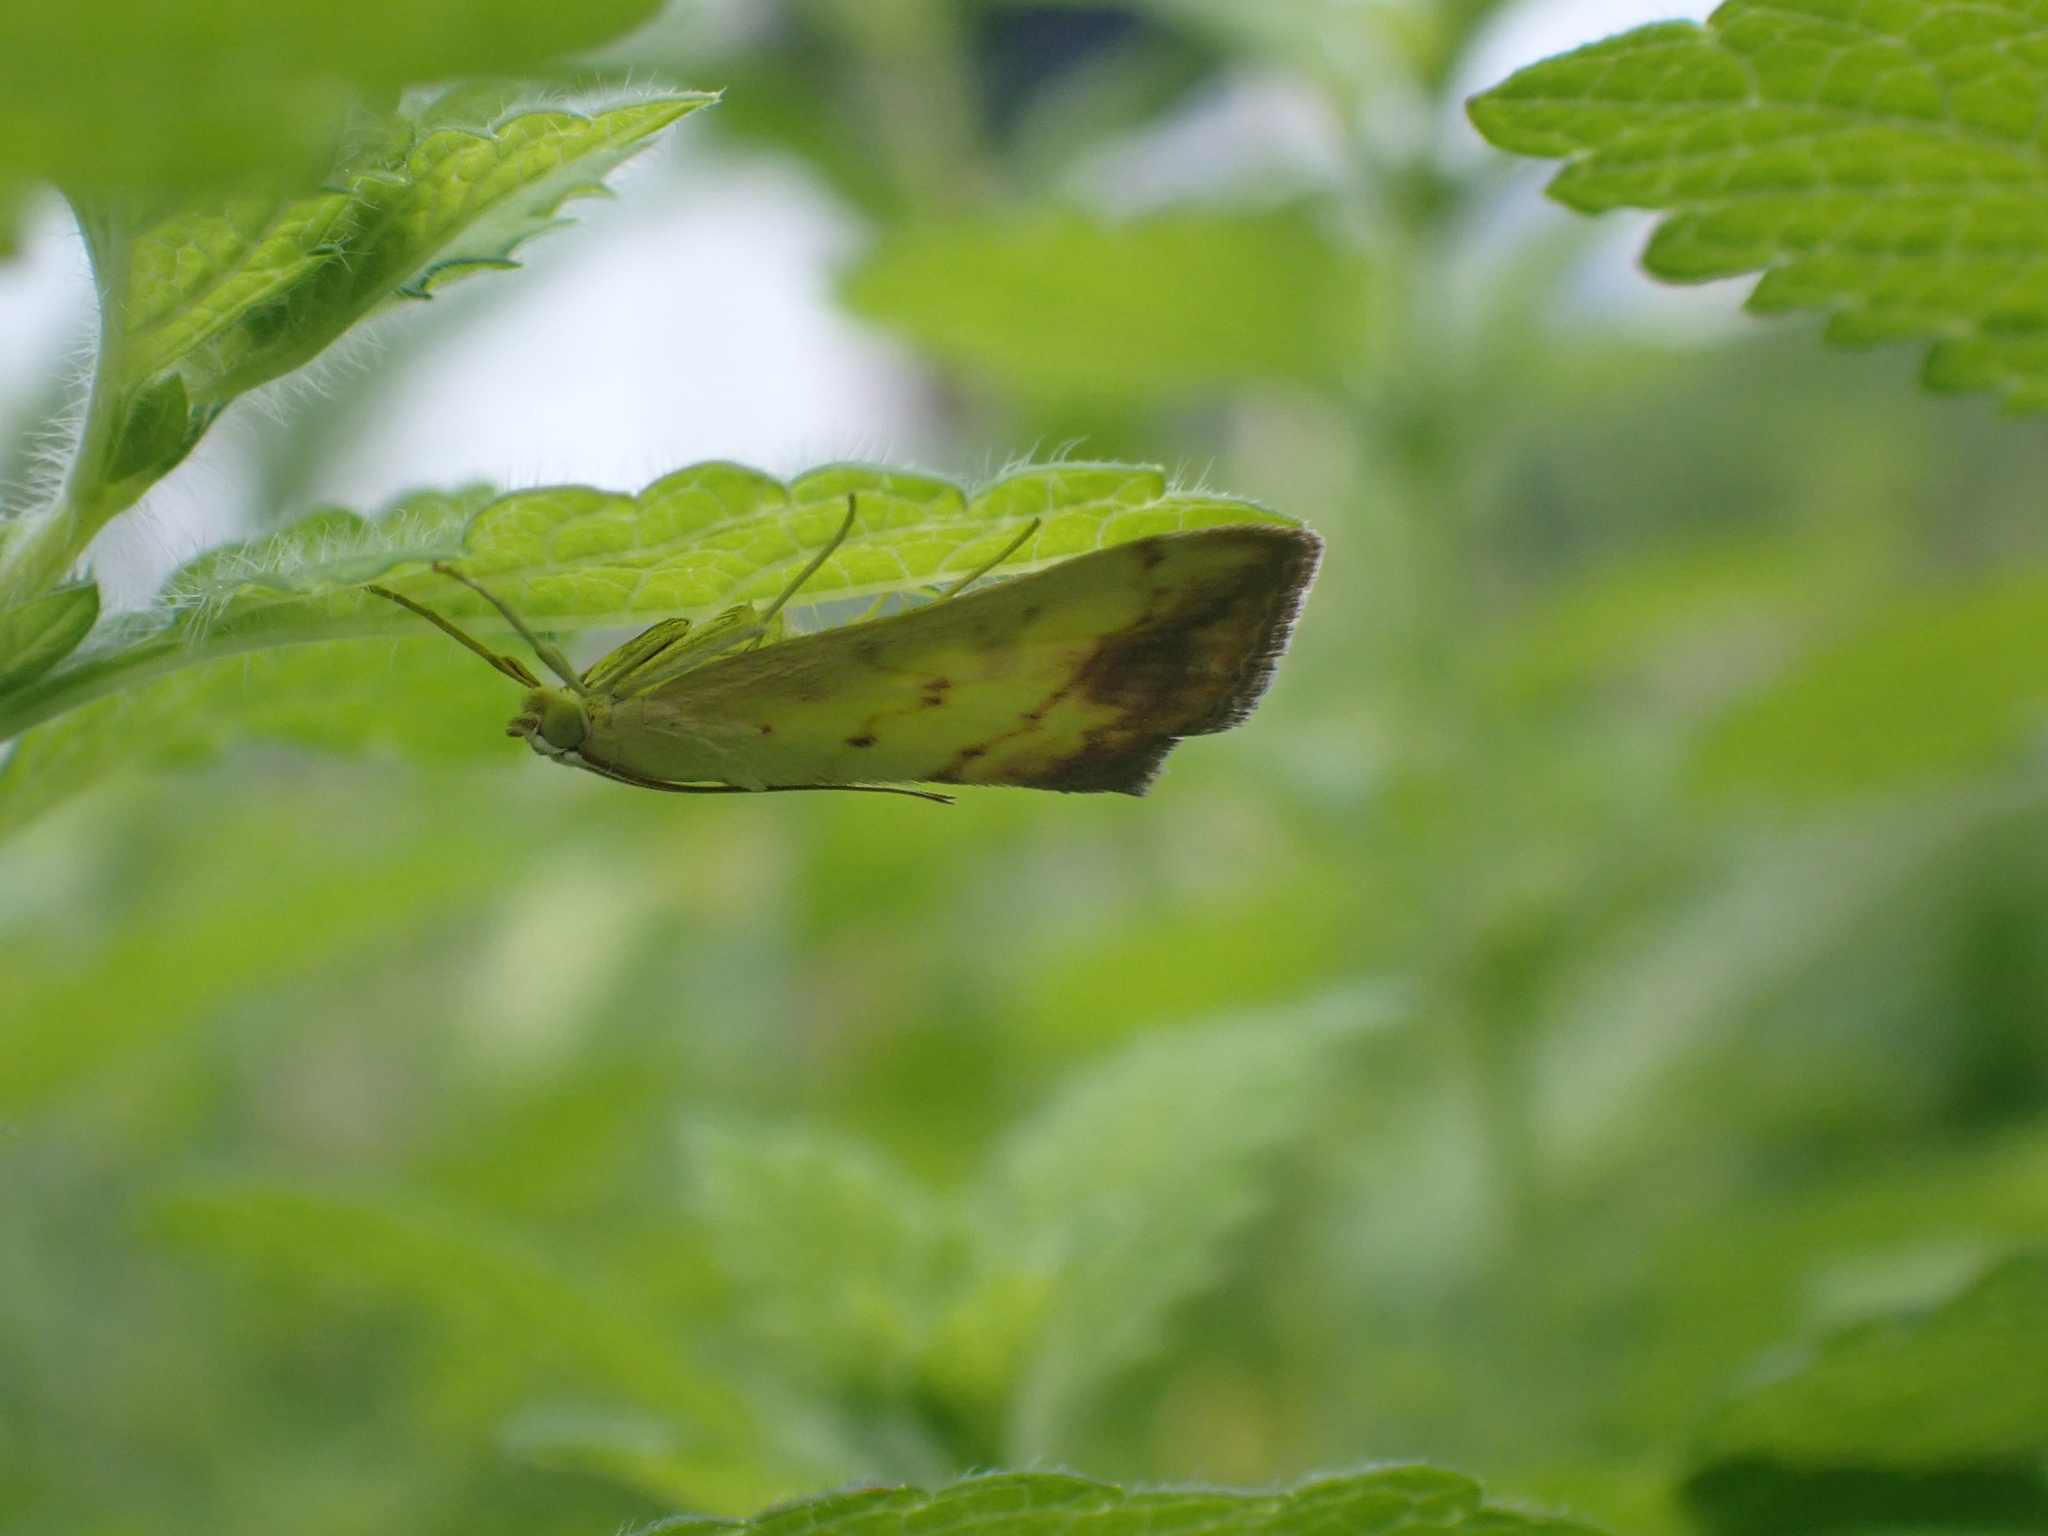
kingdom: Animalia
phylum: Arthropoda
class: Insecta
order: Lepidoptera
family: Crambidae
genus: Evergestis
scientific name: Evergestis extimalis
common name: Marbled yellow pearl
